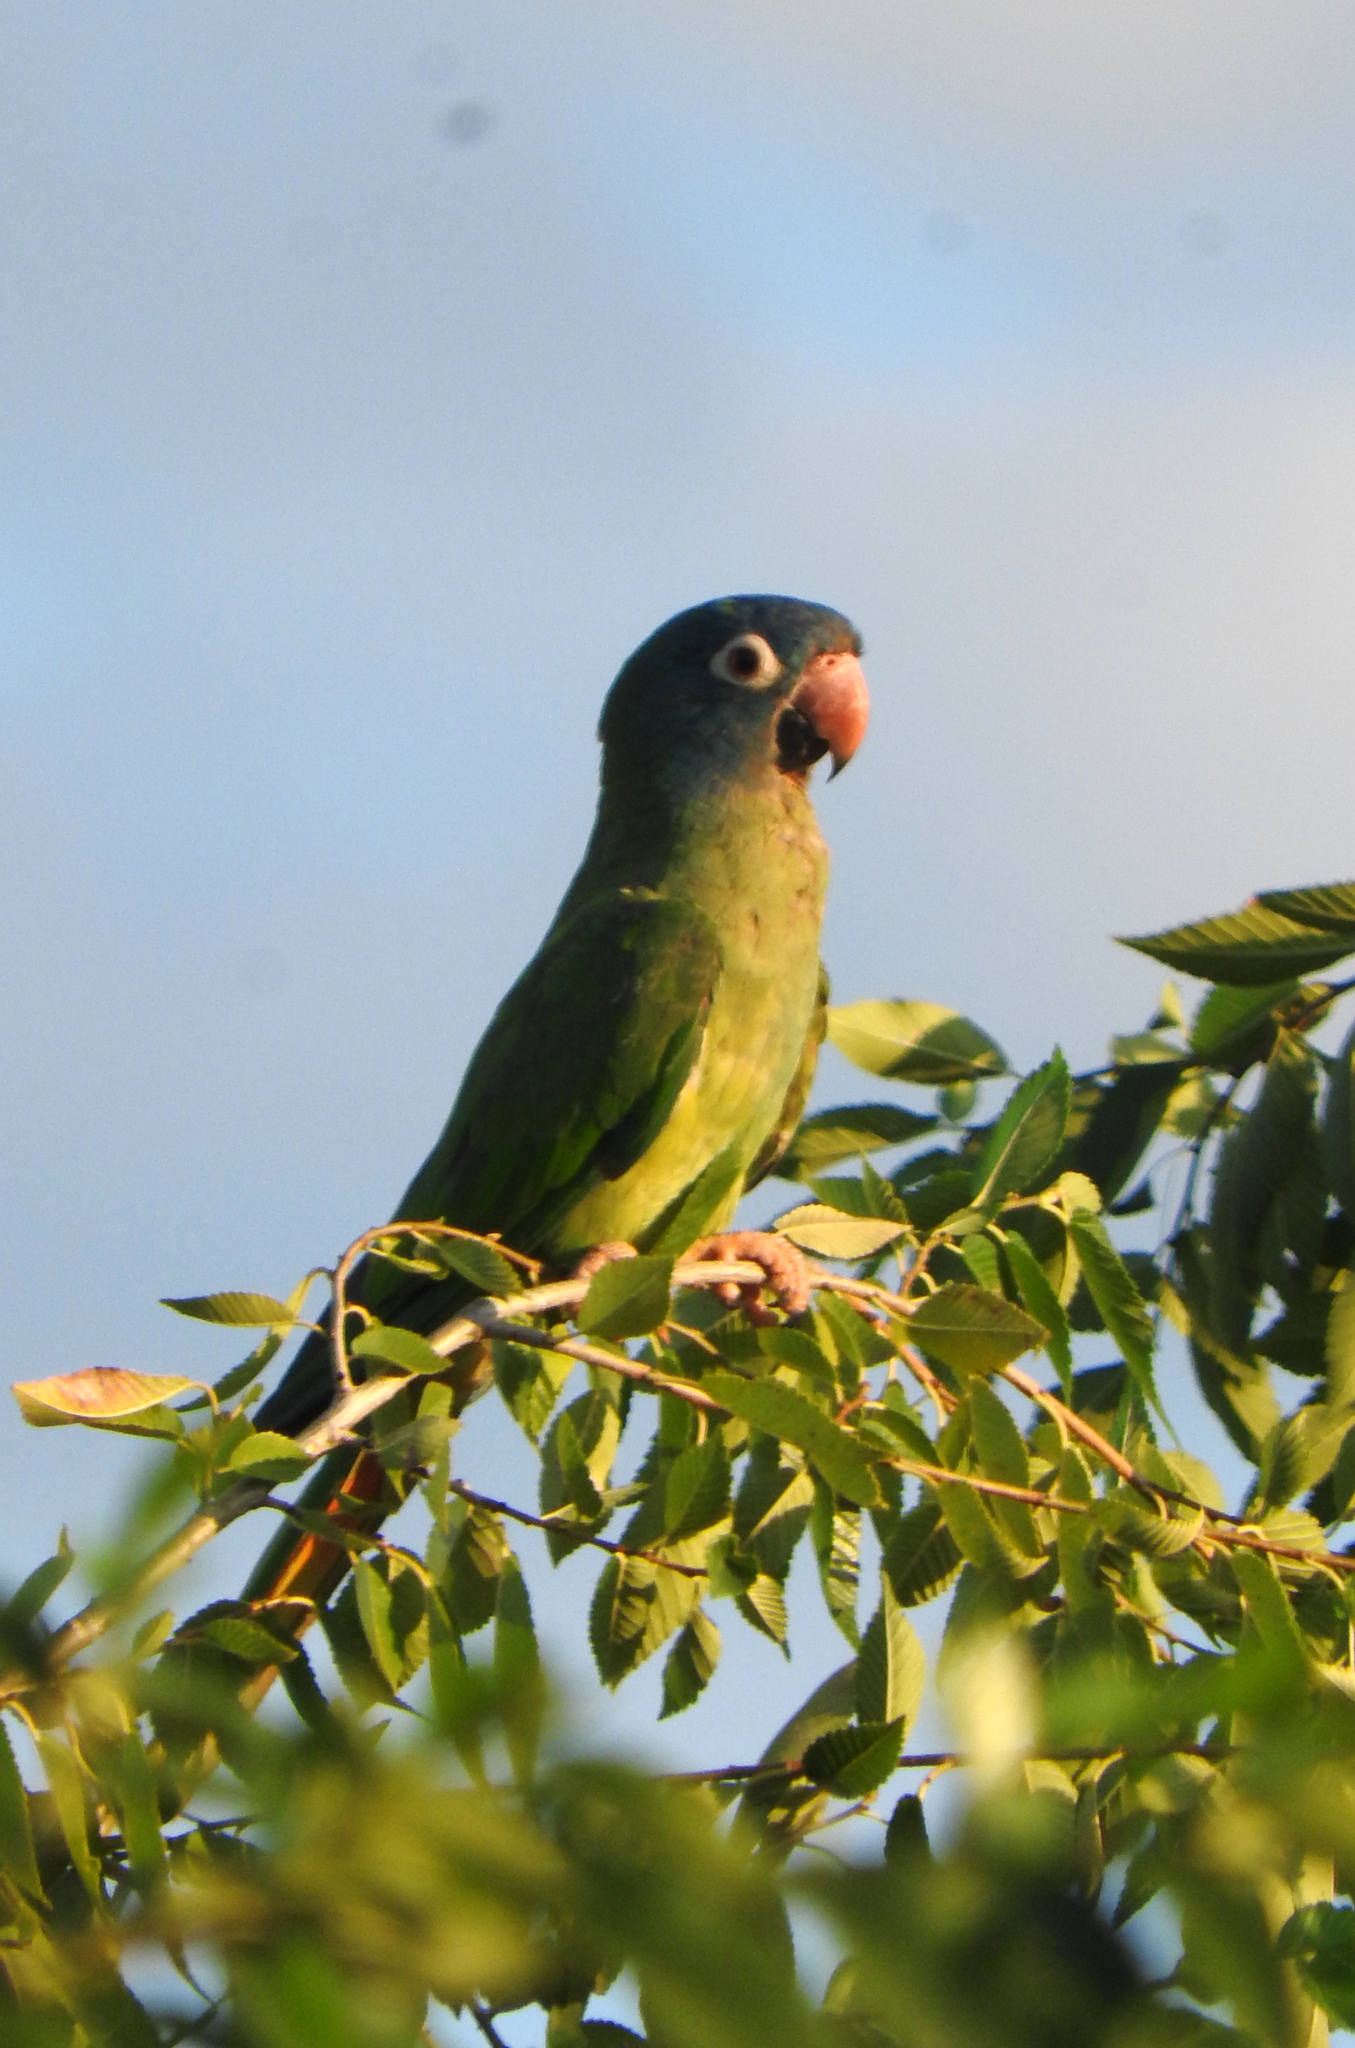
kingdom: Animalia
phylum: Chordata
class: Aves
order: Psittaciformes
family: Psittacidae
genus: Aratinga
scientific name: Aratinga acuticaudata
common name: Blue-crowned parakeet
